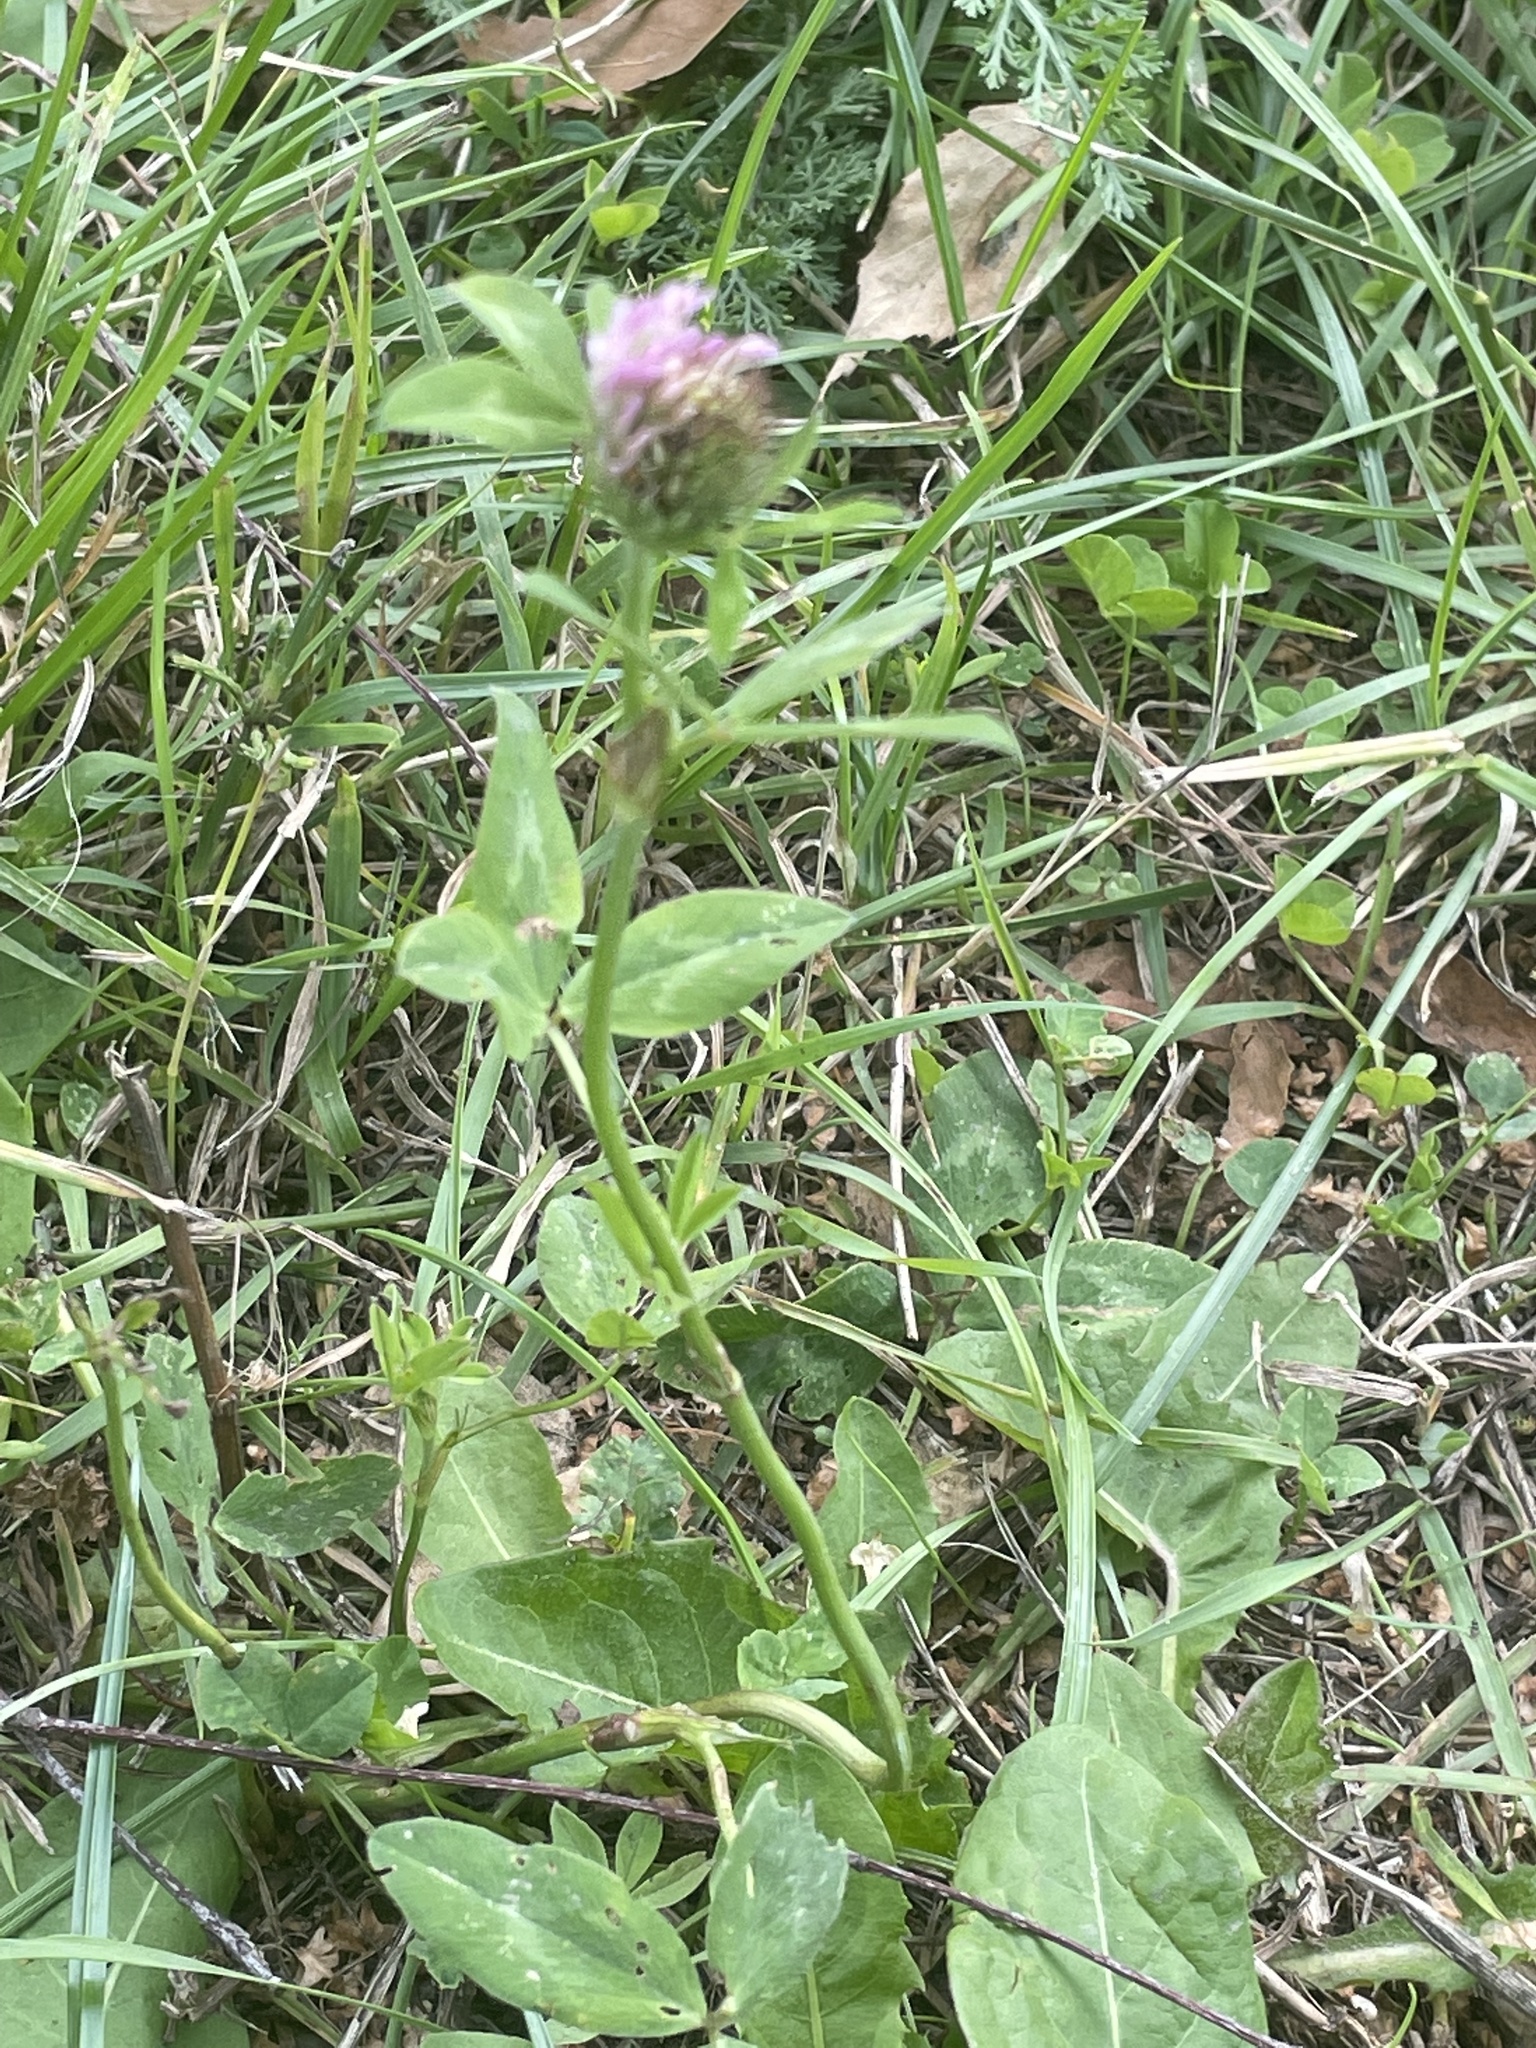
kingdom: Plantae
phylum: Tracheophyta
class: Magnoliopsida
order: Fabales
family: Fabaceae
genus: Trifolium
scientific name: Trifolium pratense
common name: Red clover
